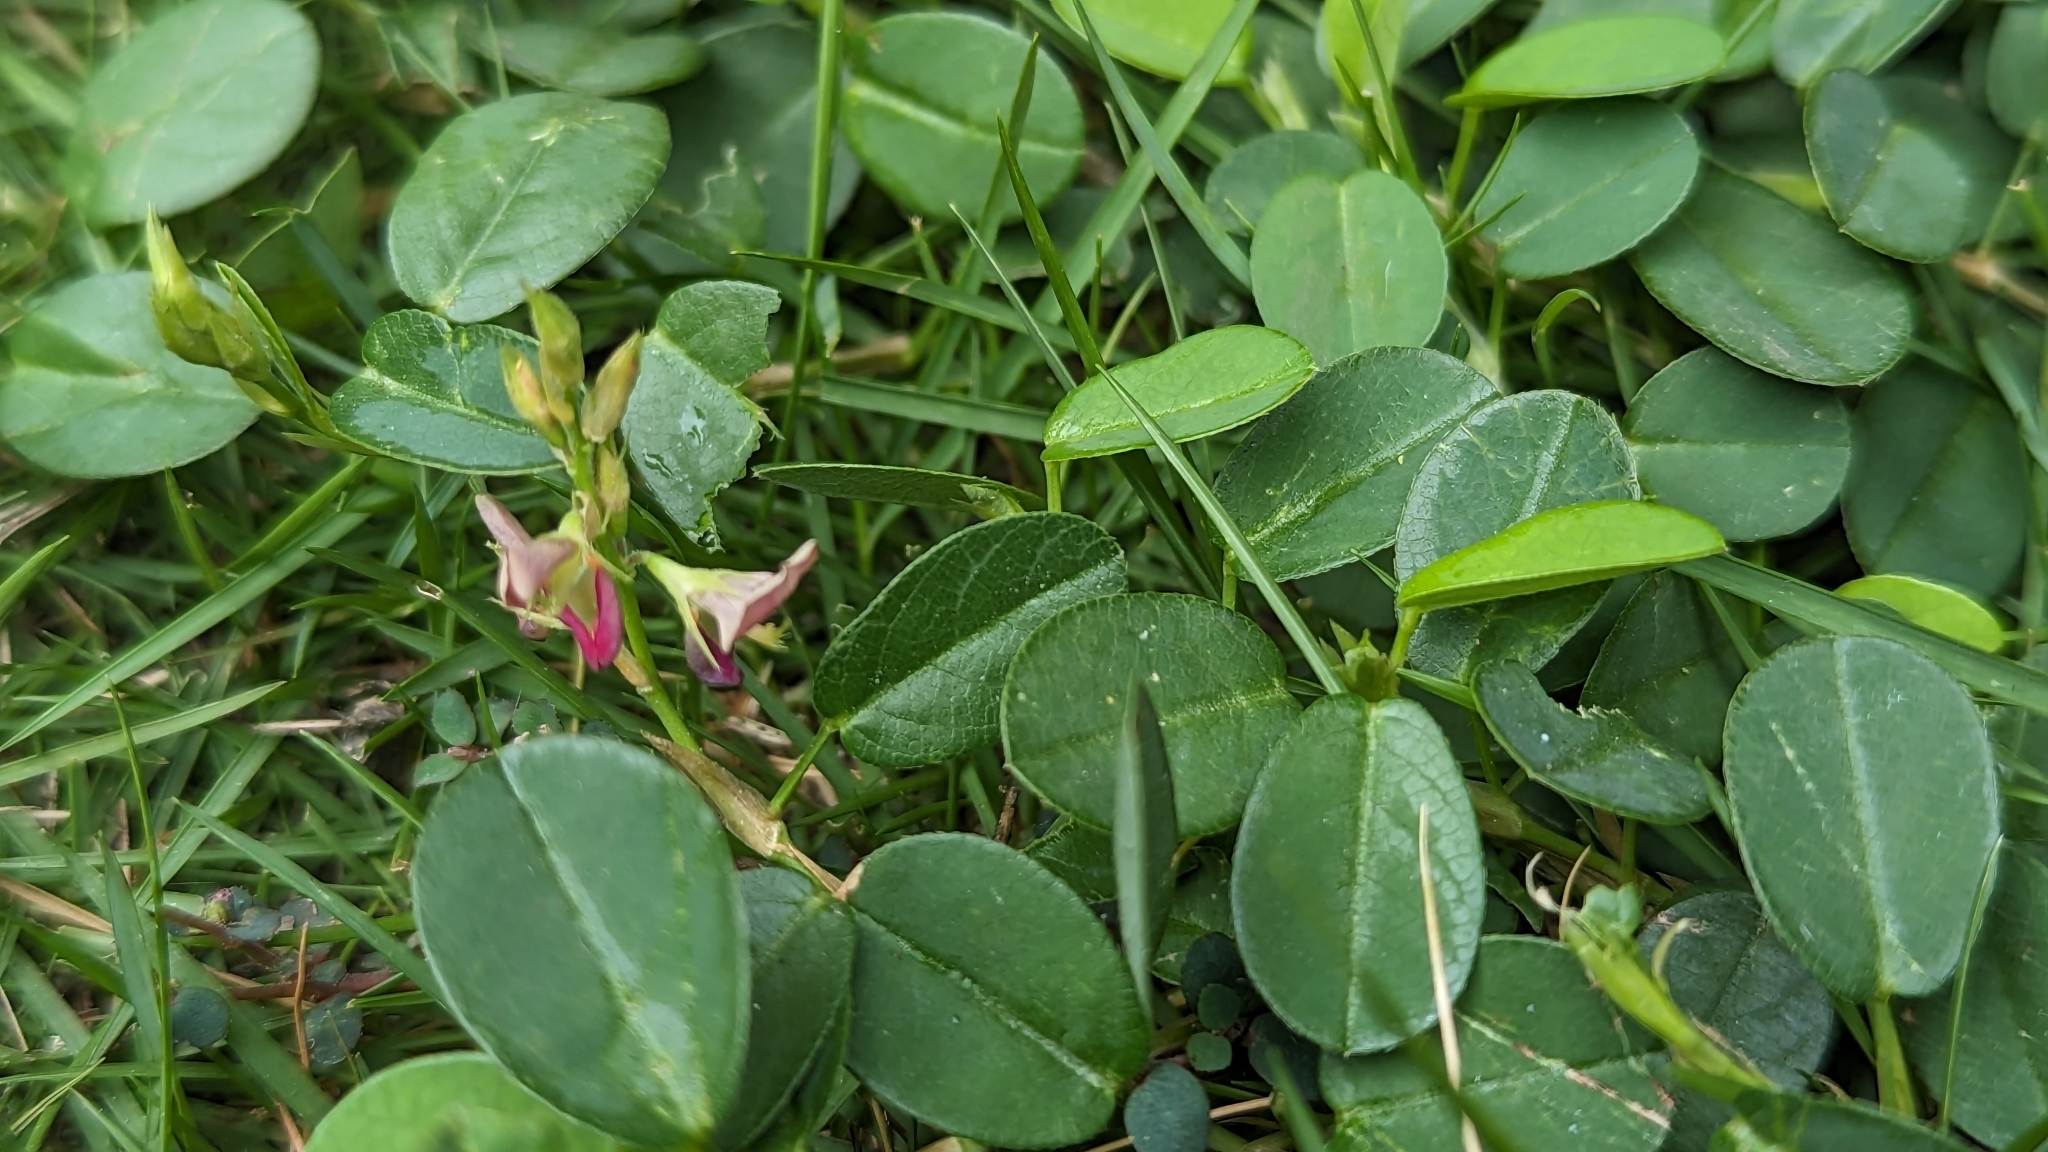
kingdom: Plantae
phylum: Tracheophyta
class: Magnoliopsida
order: Fabales
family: Fabaceae
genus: Alysicarpus
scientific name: Alysicarpus vaginalis
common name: White moneywort
